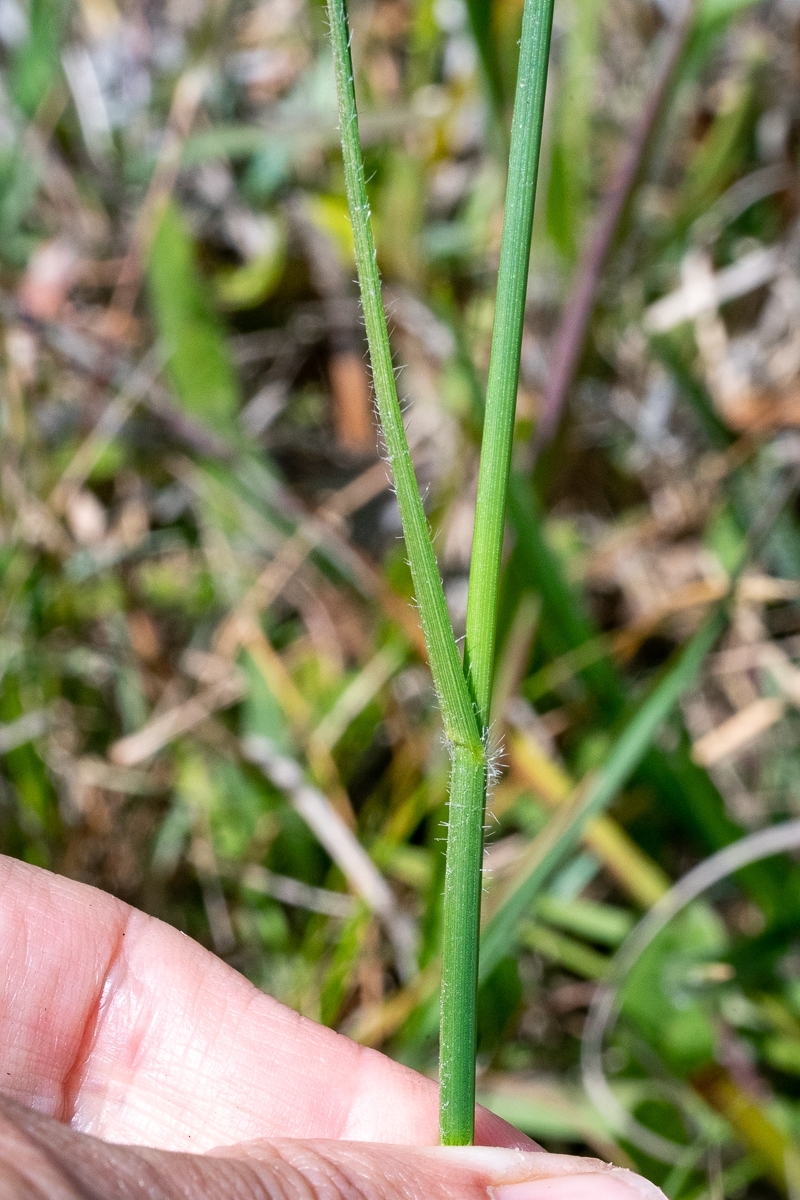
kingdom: Plantae
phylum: Tracheophyta
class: Liliopsida
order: Poales
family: Cyperaceae
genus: Fuirena
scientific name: Fuirena hirsuta
